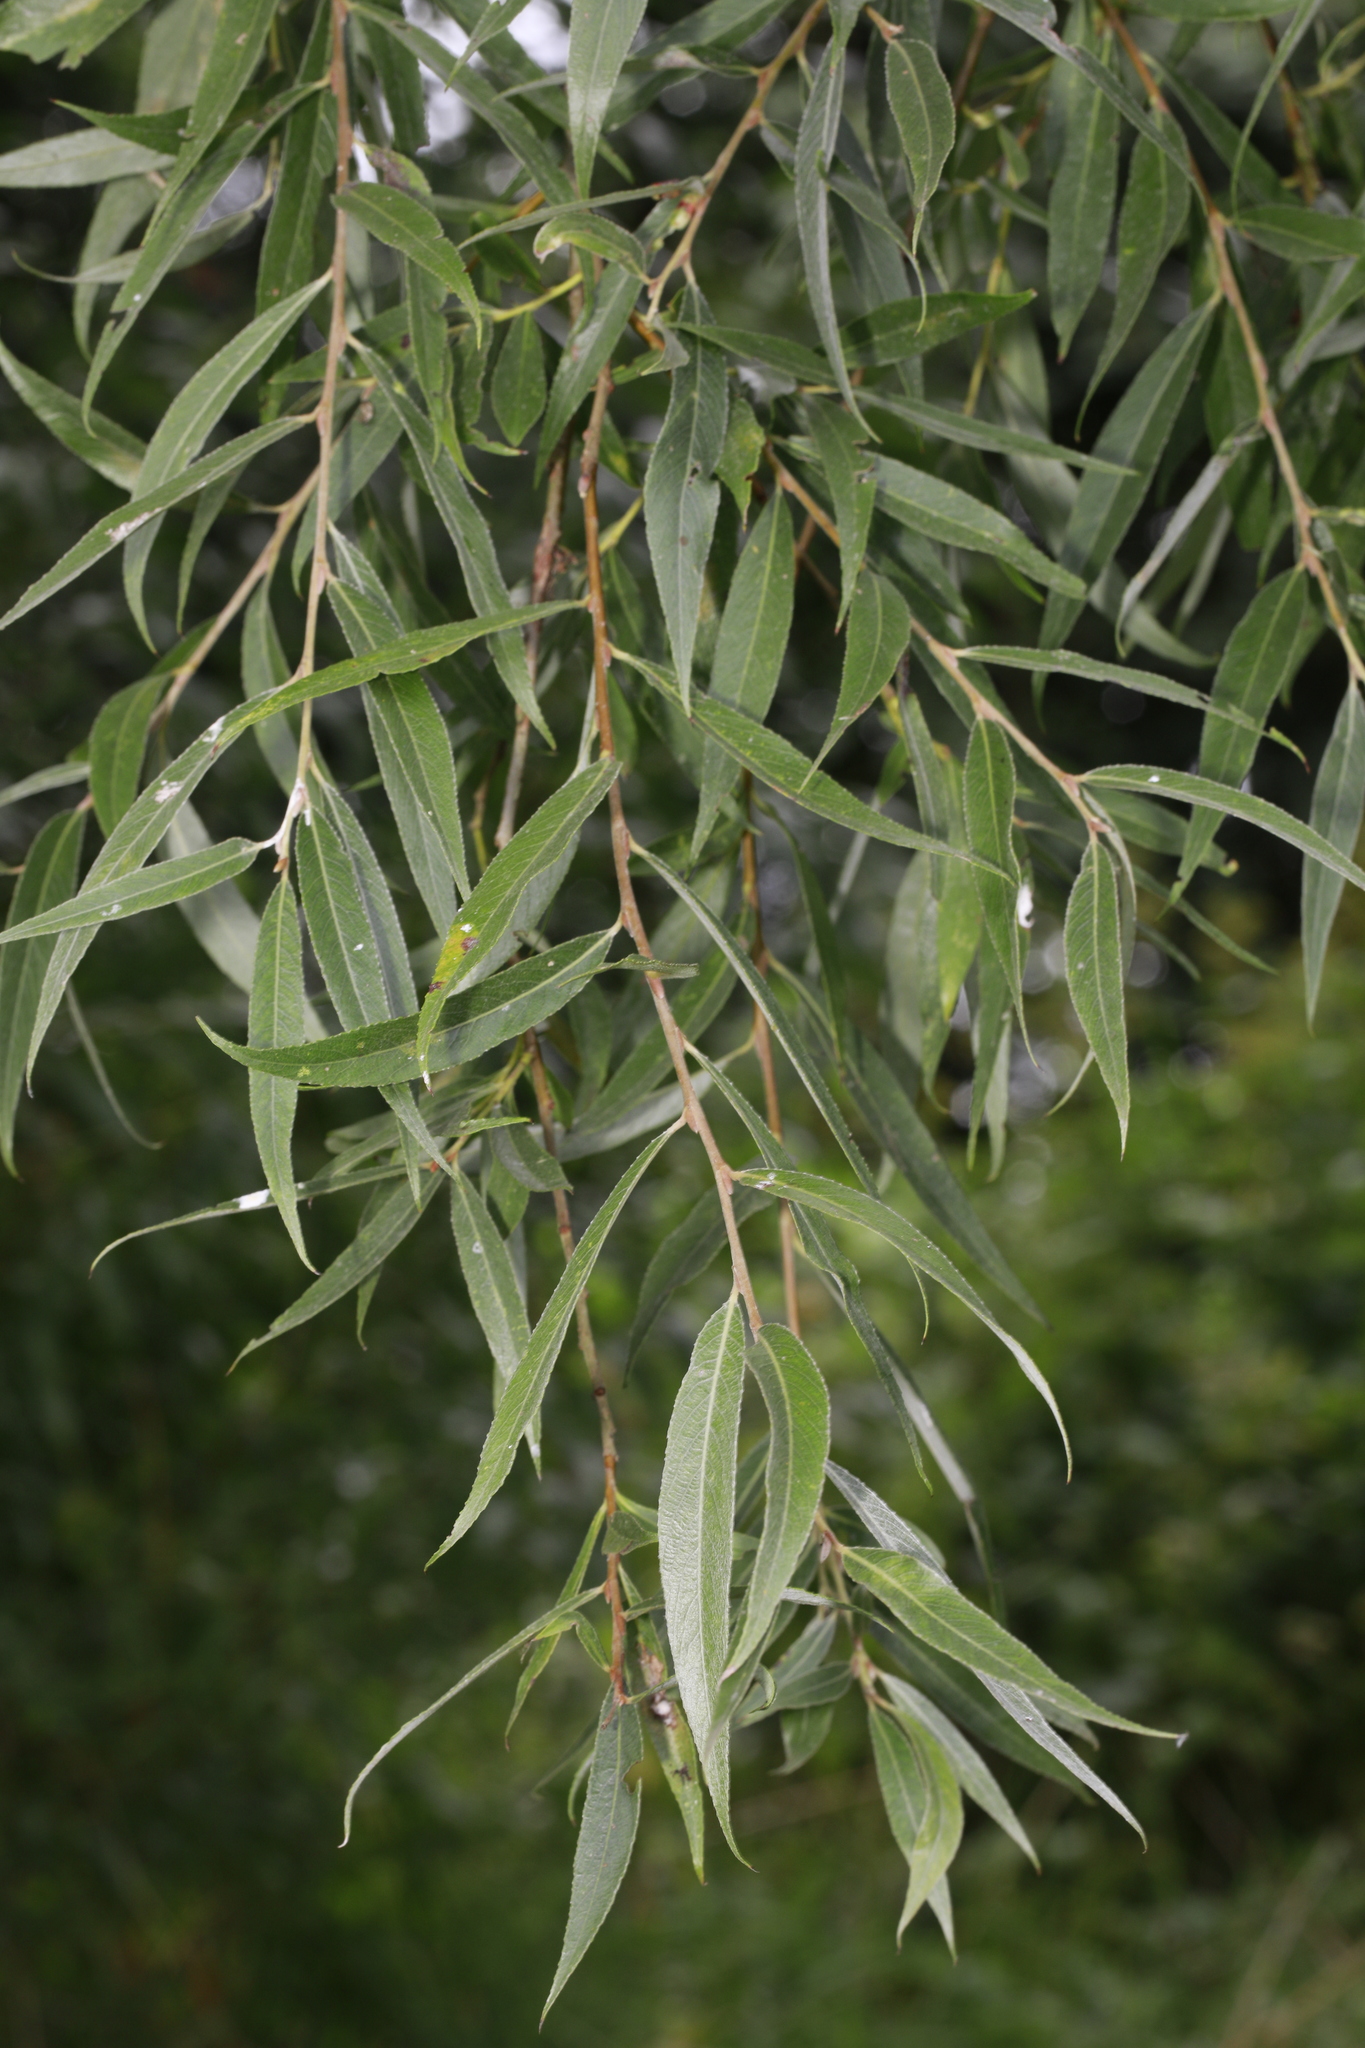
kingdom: Plantae
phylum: Tracheophyta
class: Magnoliopsida
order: Malpighiales
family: Salicaceae
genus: Salix
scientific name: Salix alba
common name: White willow
